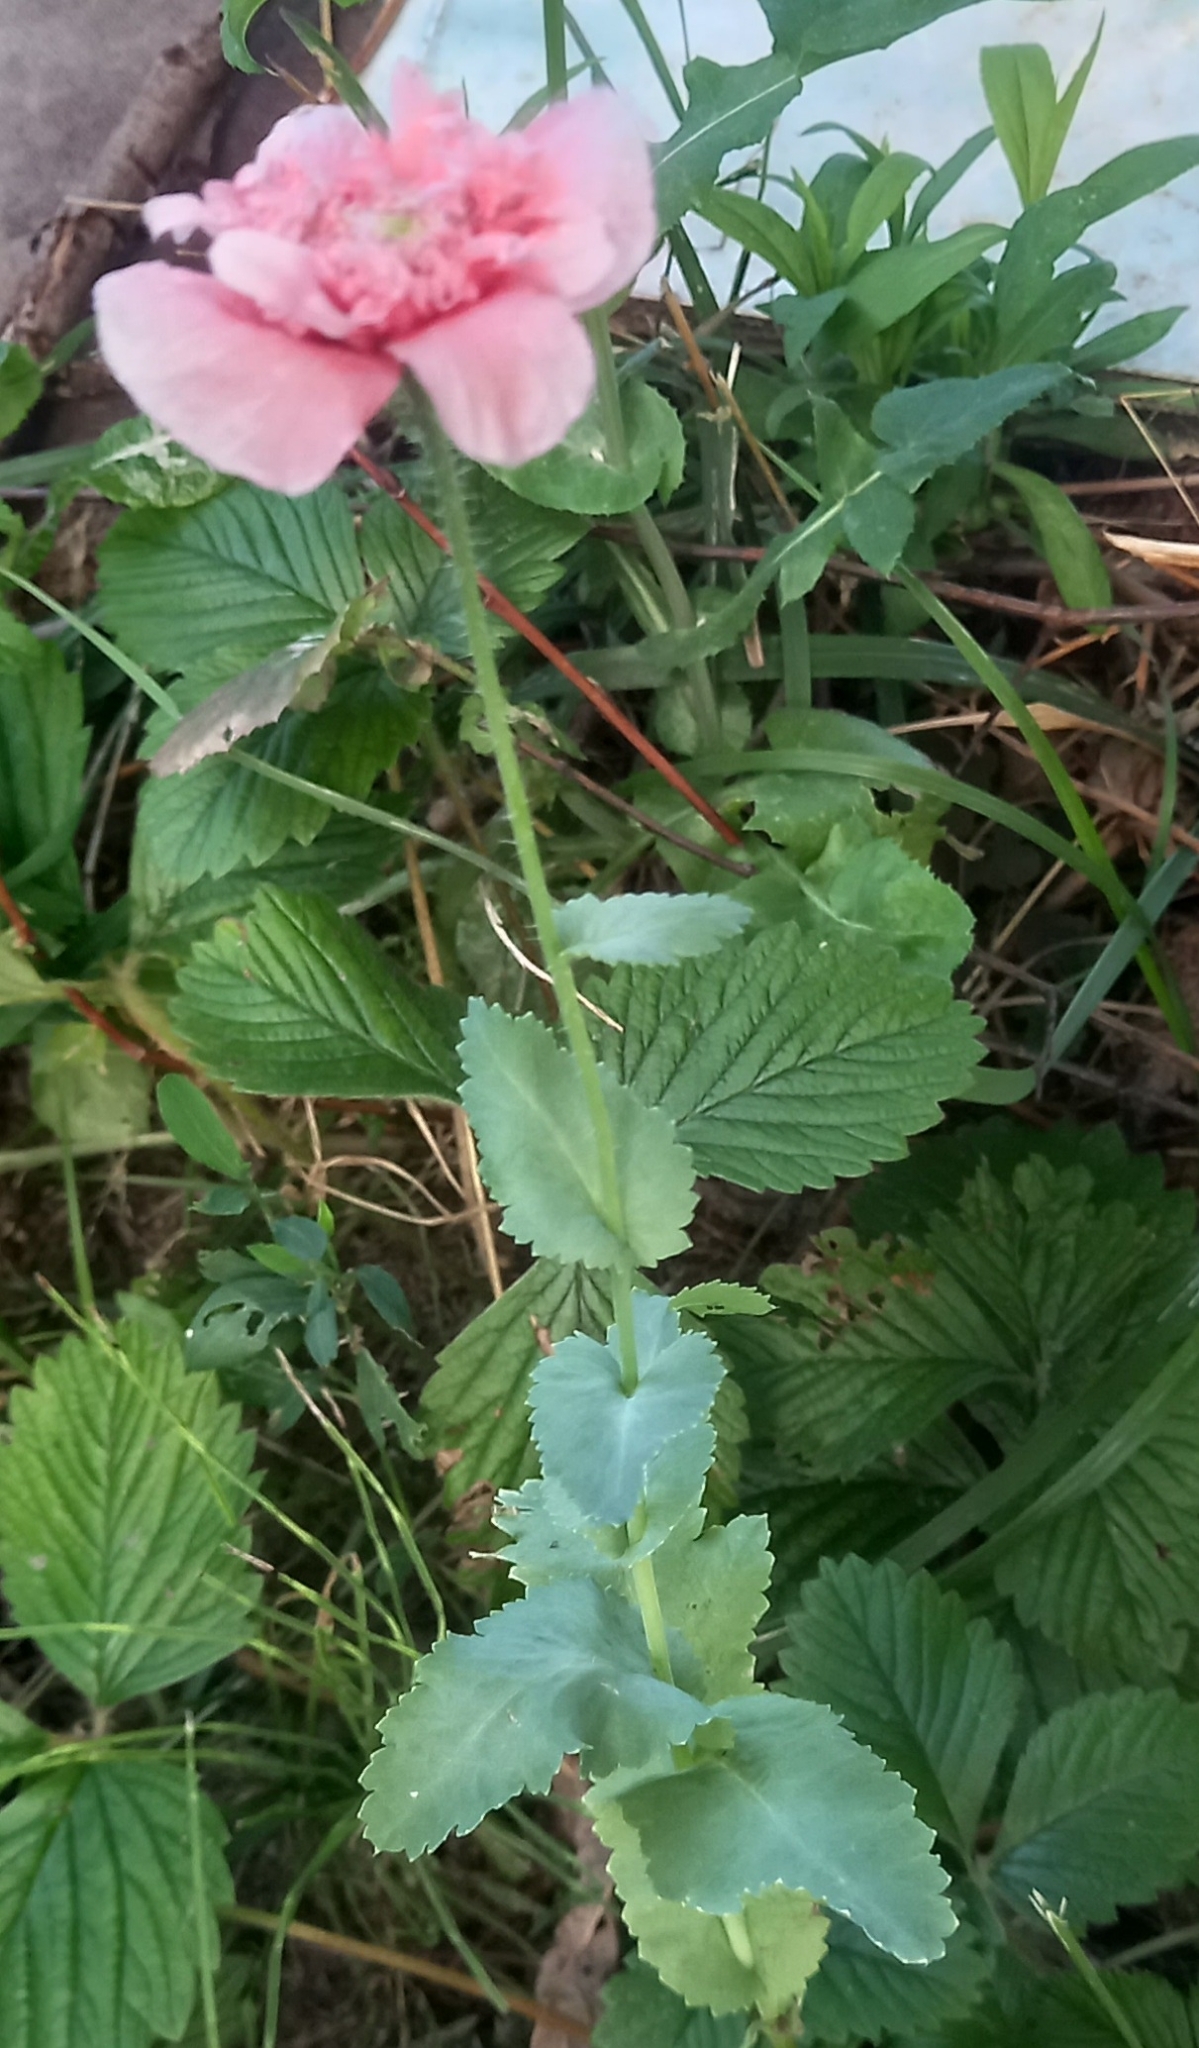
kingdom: Plantae
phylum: Tracheophyta
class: Magnoliopsida
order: Ranunculales
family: Papaveraceae
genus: Papaver
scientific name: Papaver somniferum
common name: Opium poppy
